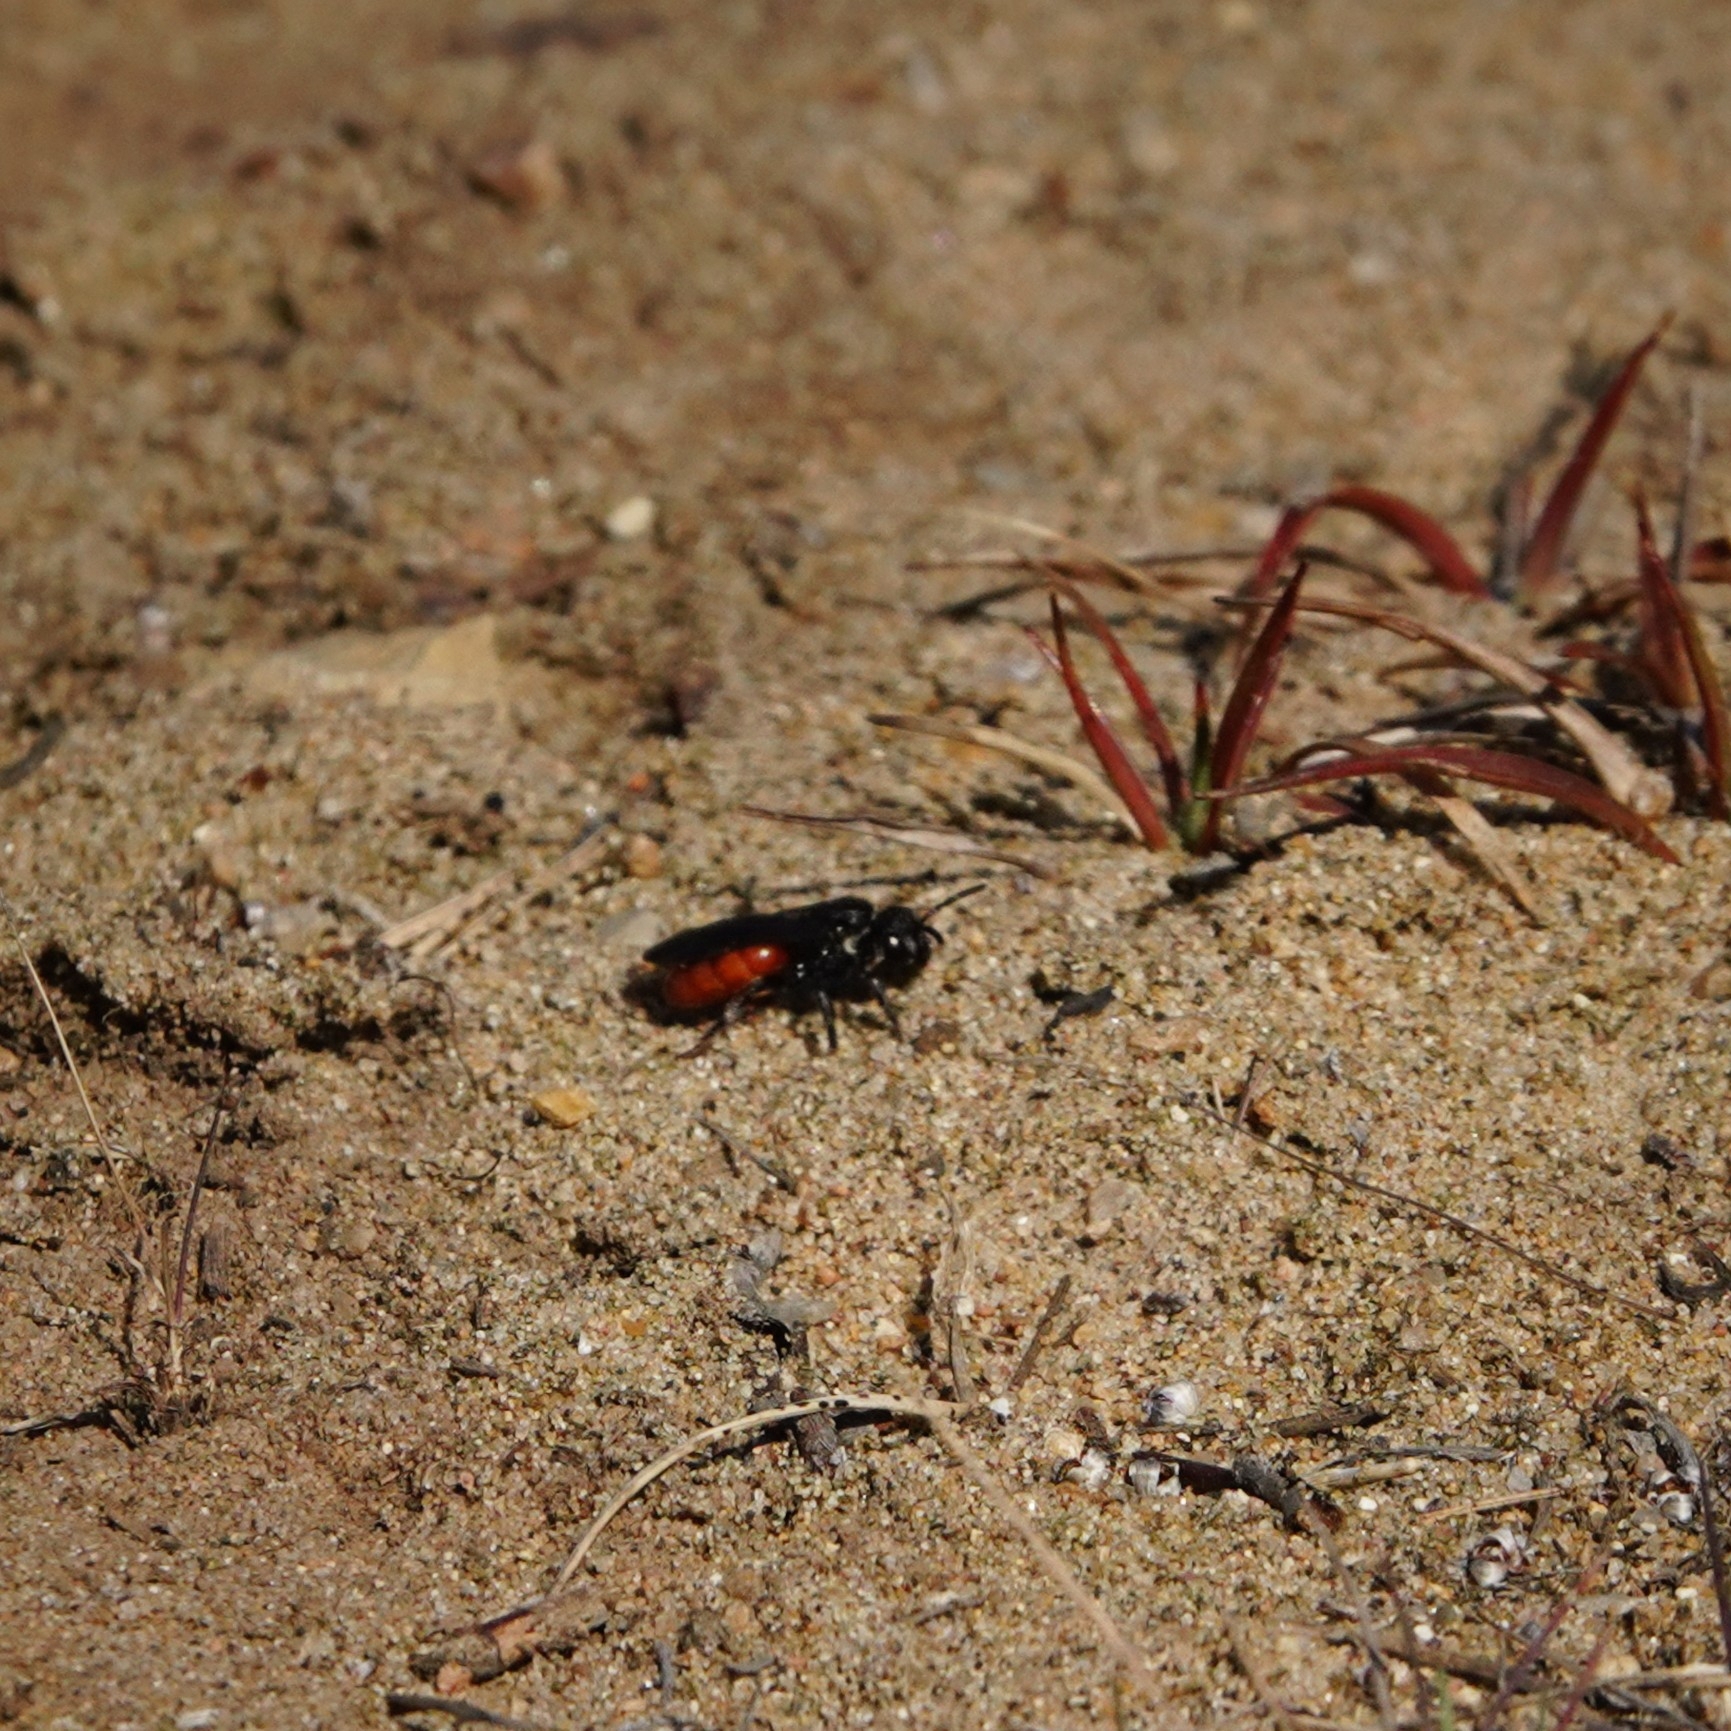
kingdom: Animalia
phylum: Arthropoda
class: Insecta
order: Hymenoptera
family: Halictidae
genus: Sphecodes
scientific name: Sphecodes albilabris
